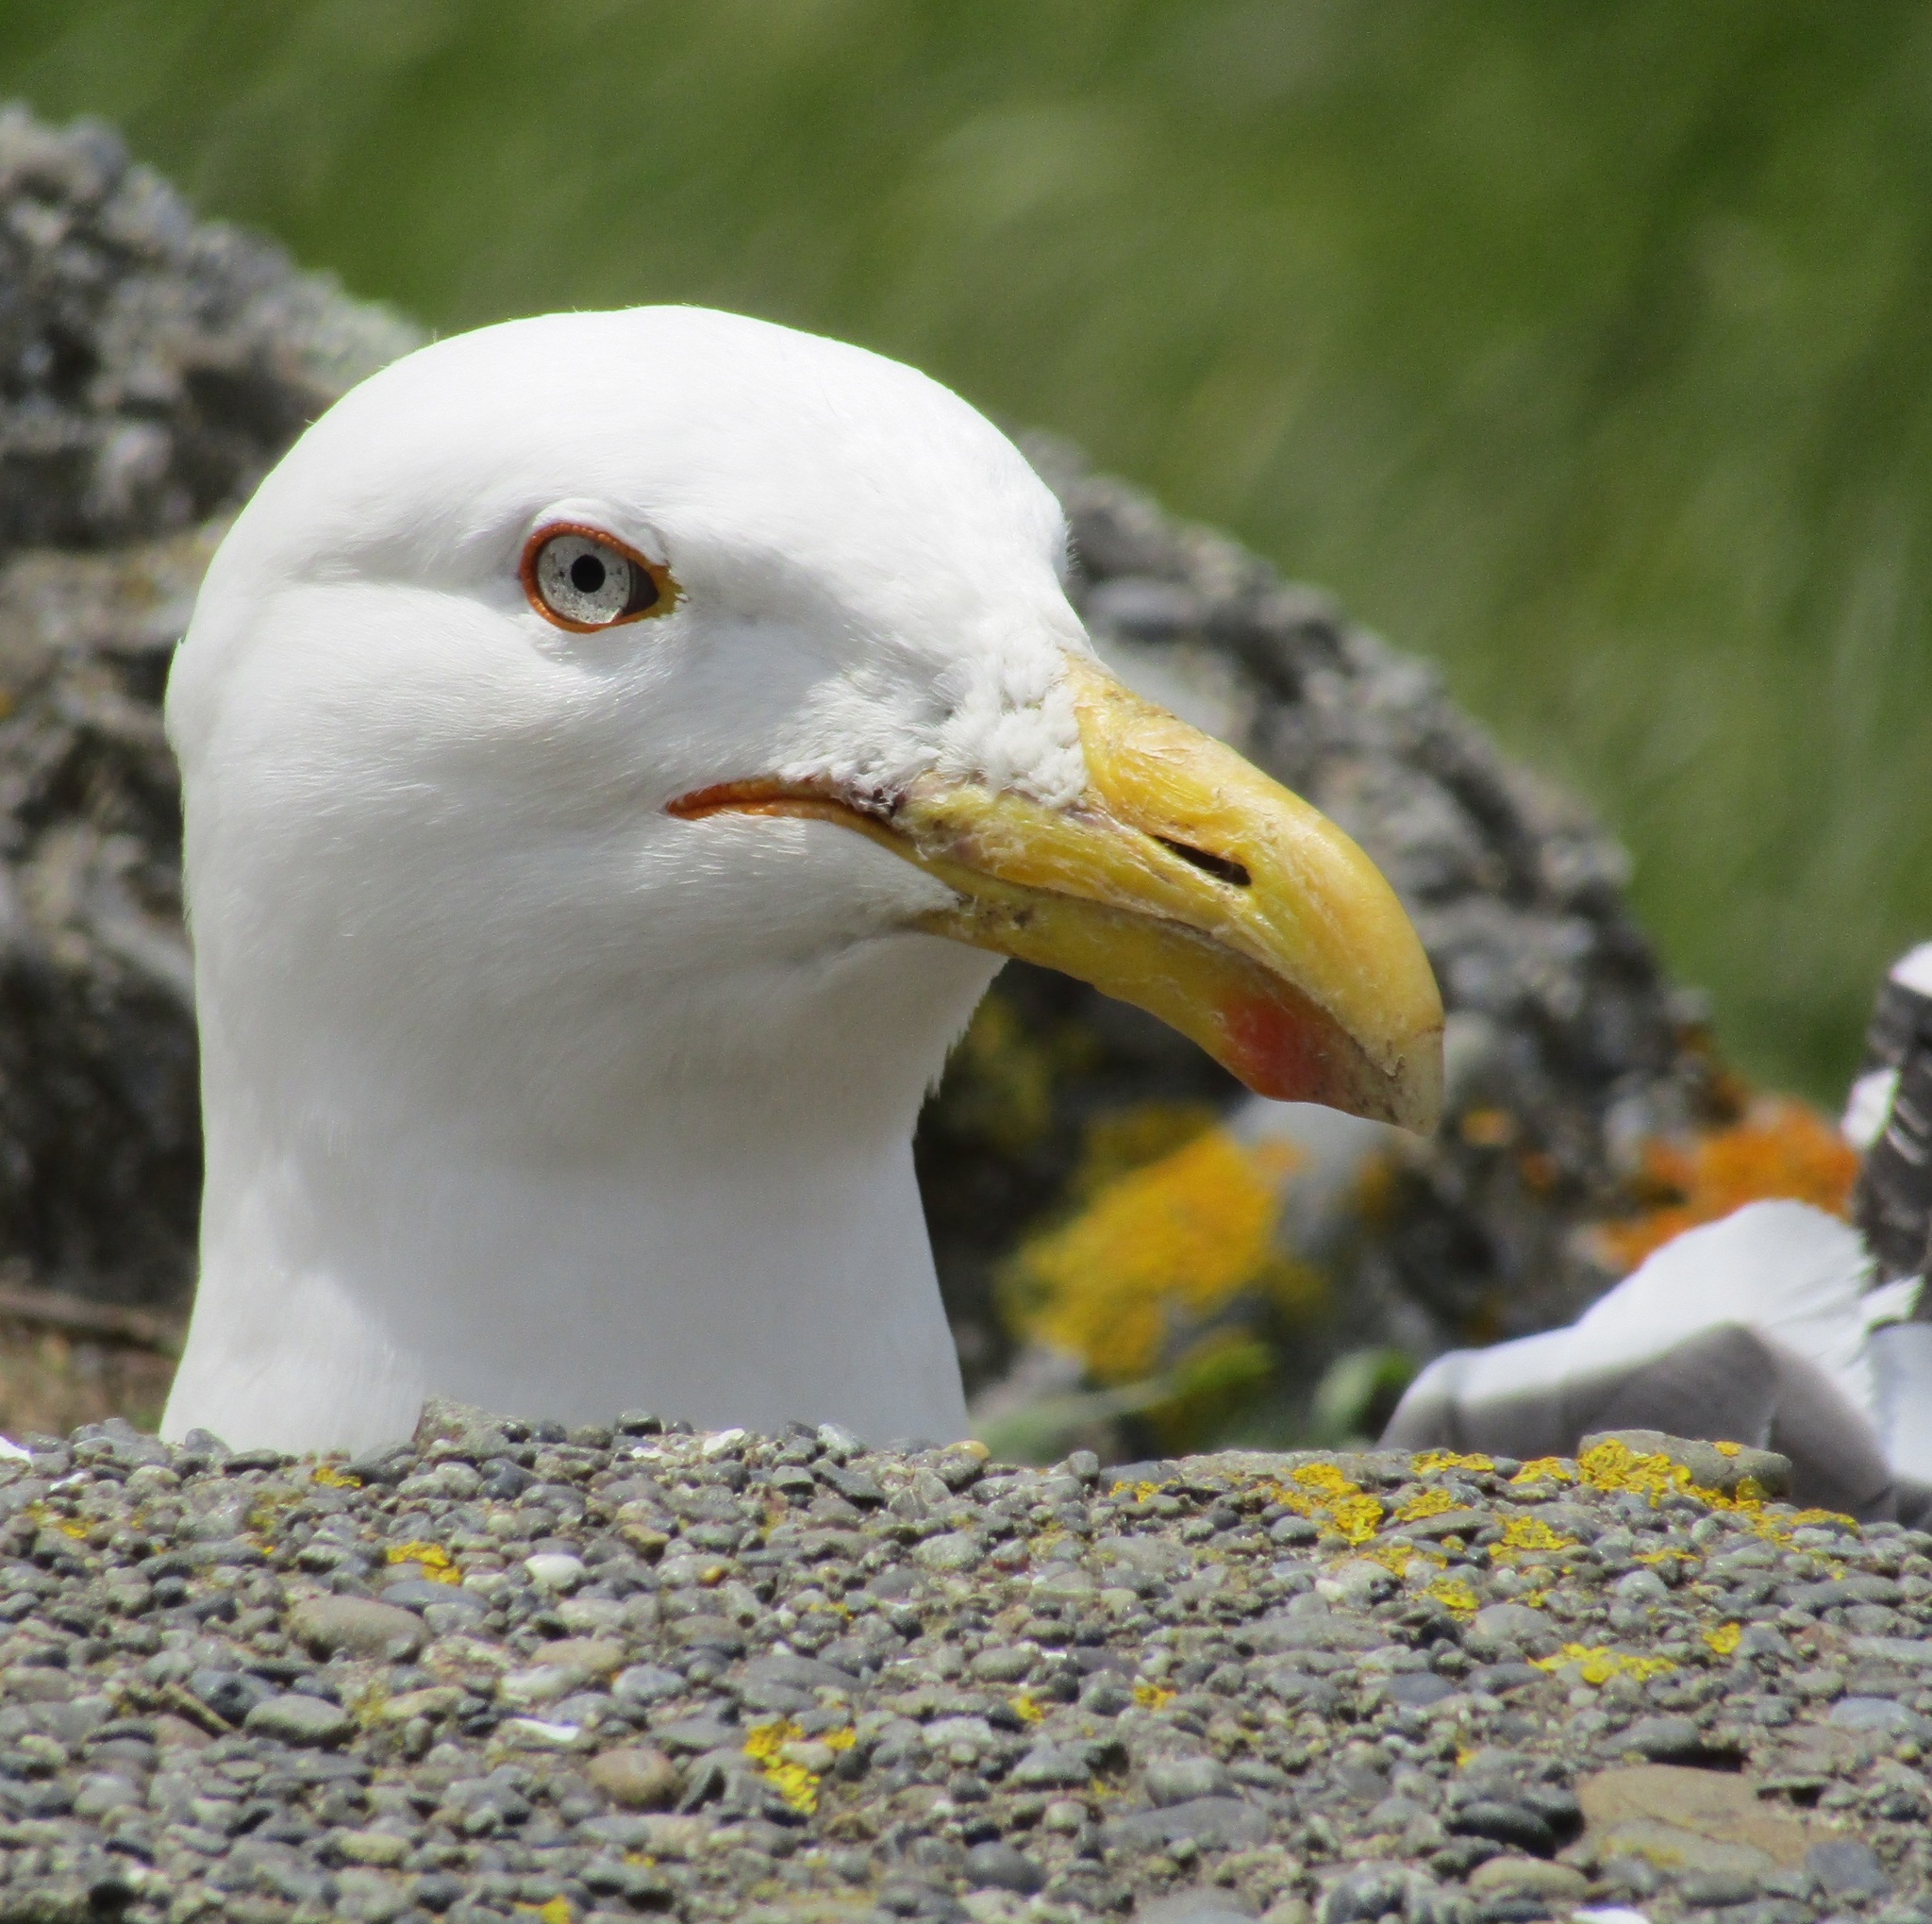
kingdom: Animalia
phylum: Chordata
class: Aves
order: Charadriiformes
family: Laridae
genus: Larus
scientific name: Larus dominicanus
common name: Kelp gull
